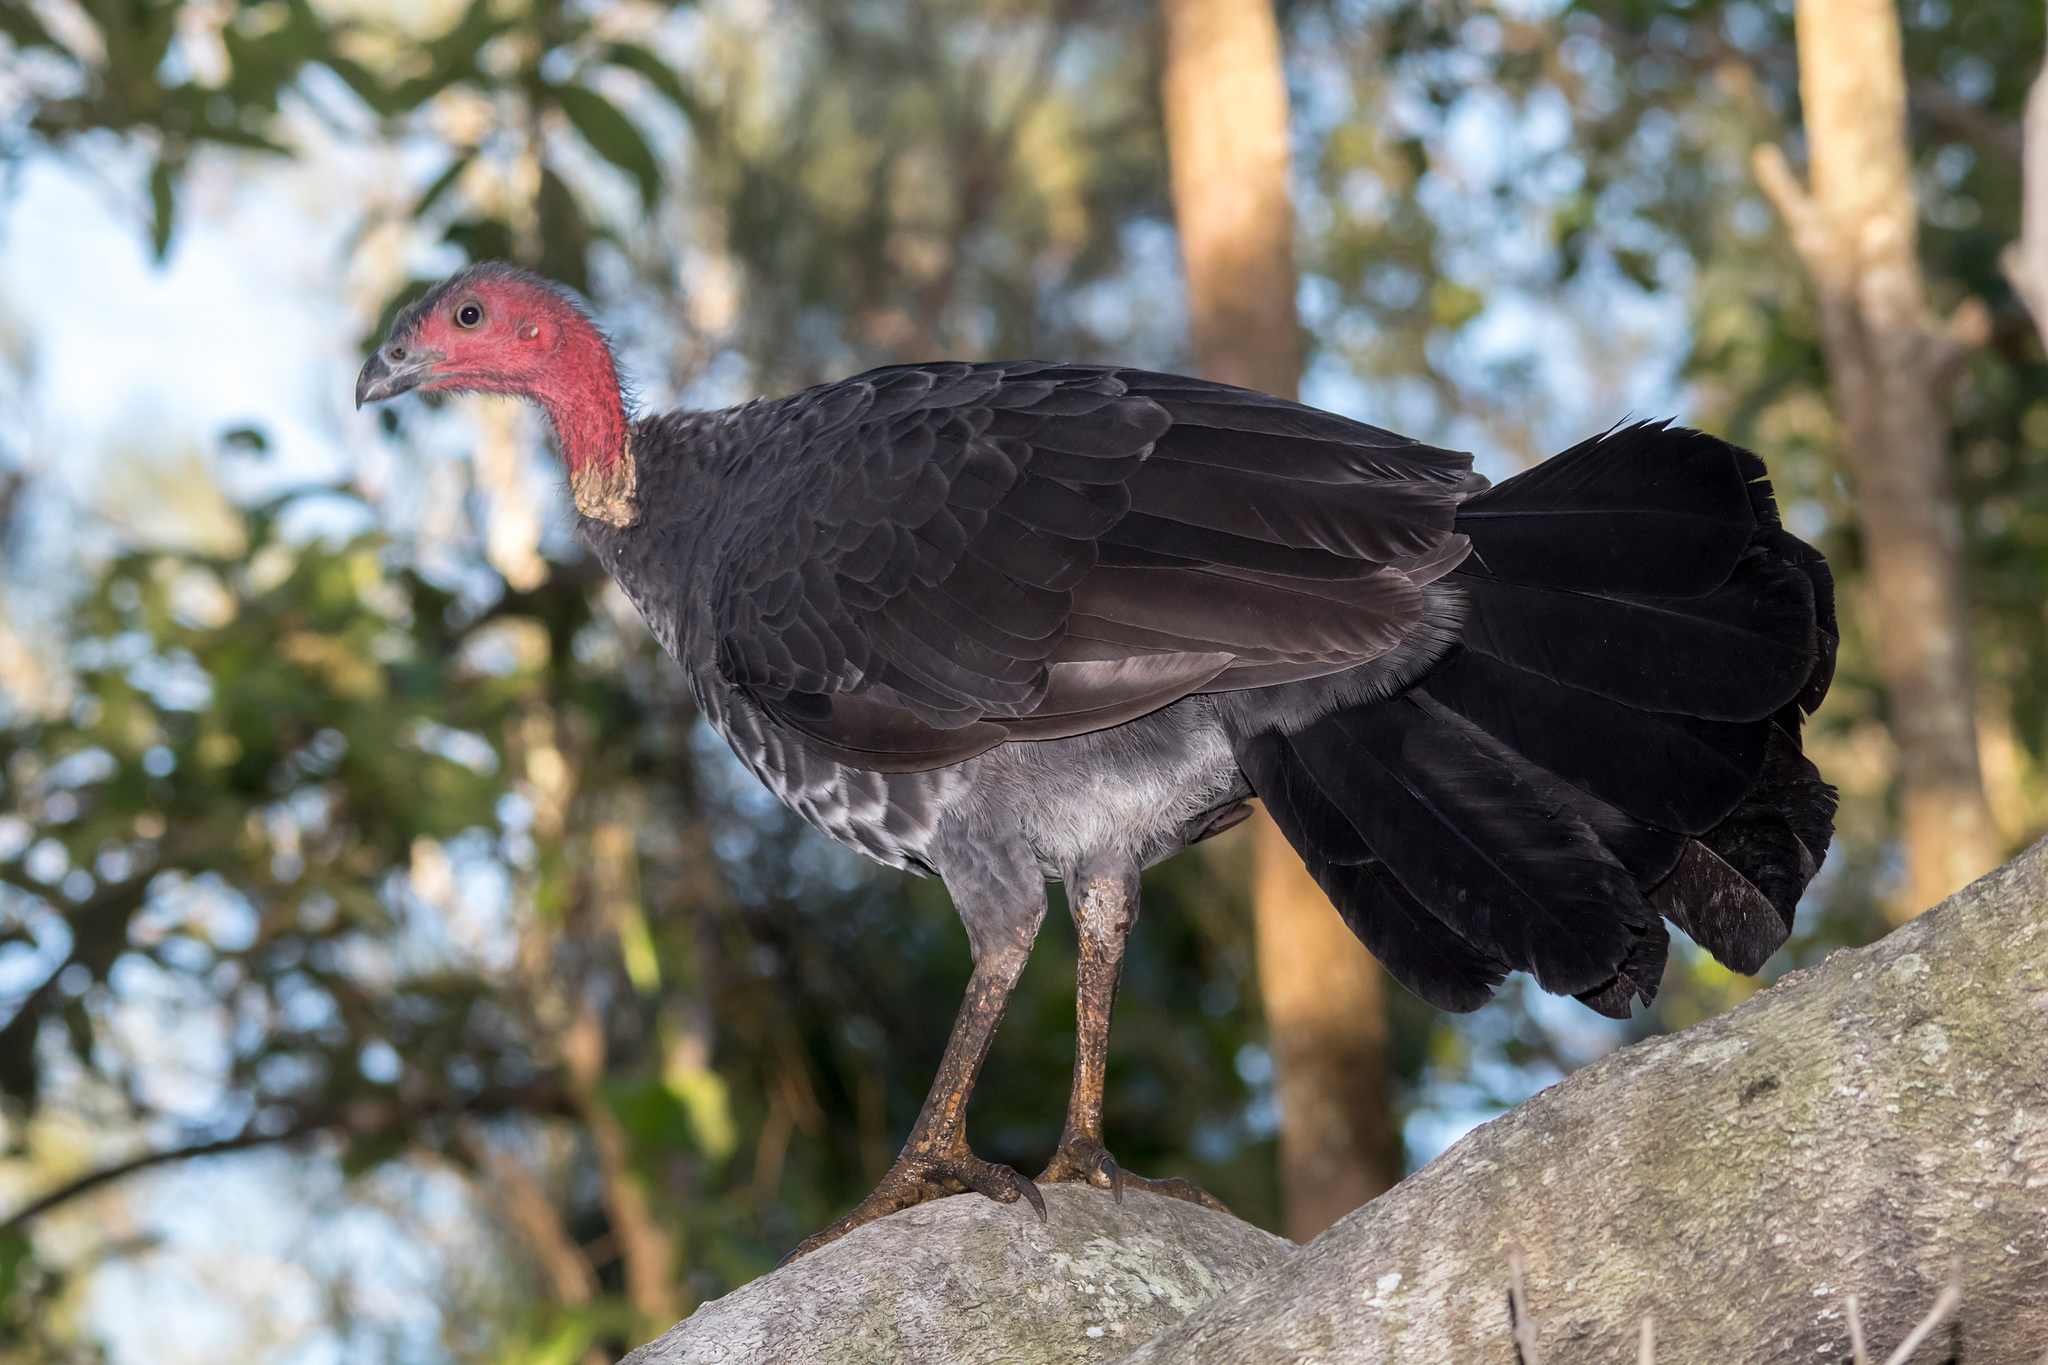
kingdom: Animalia
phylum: Chordata
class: Aves
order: Galliformes
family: Megapodiidae
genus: Alectura
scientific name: Alectura lathami
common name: Australian brushturkey
